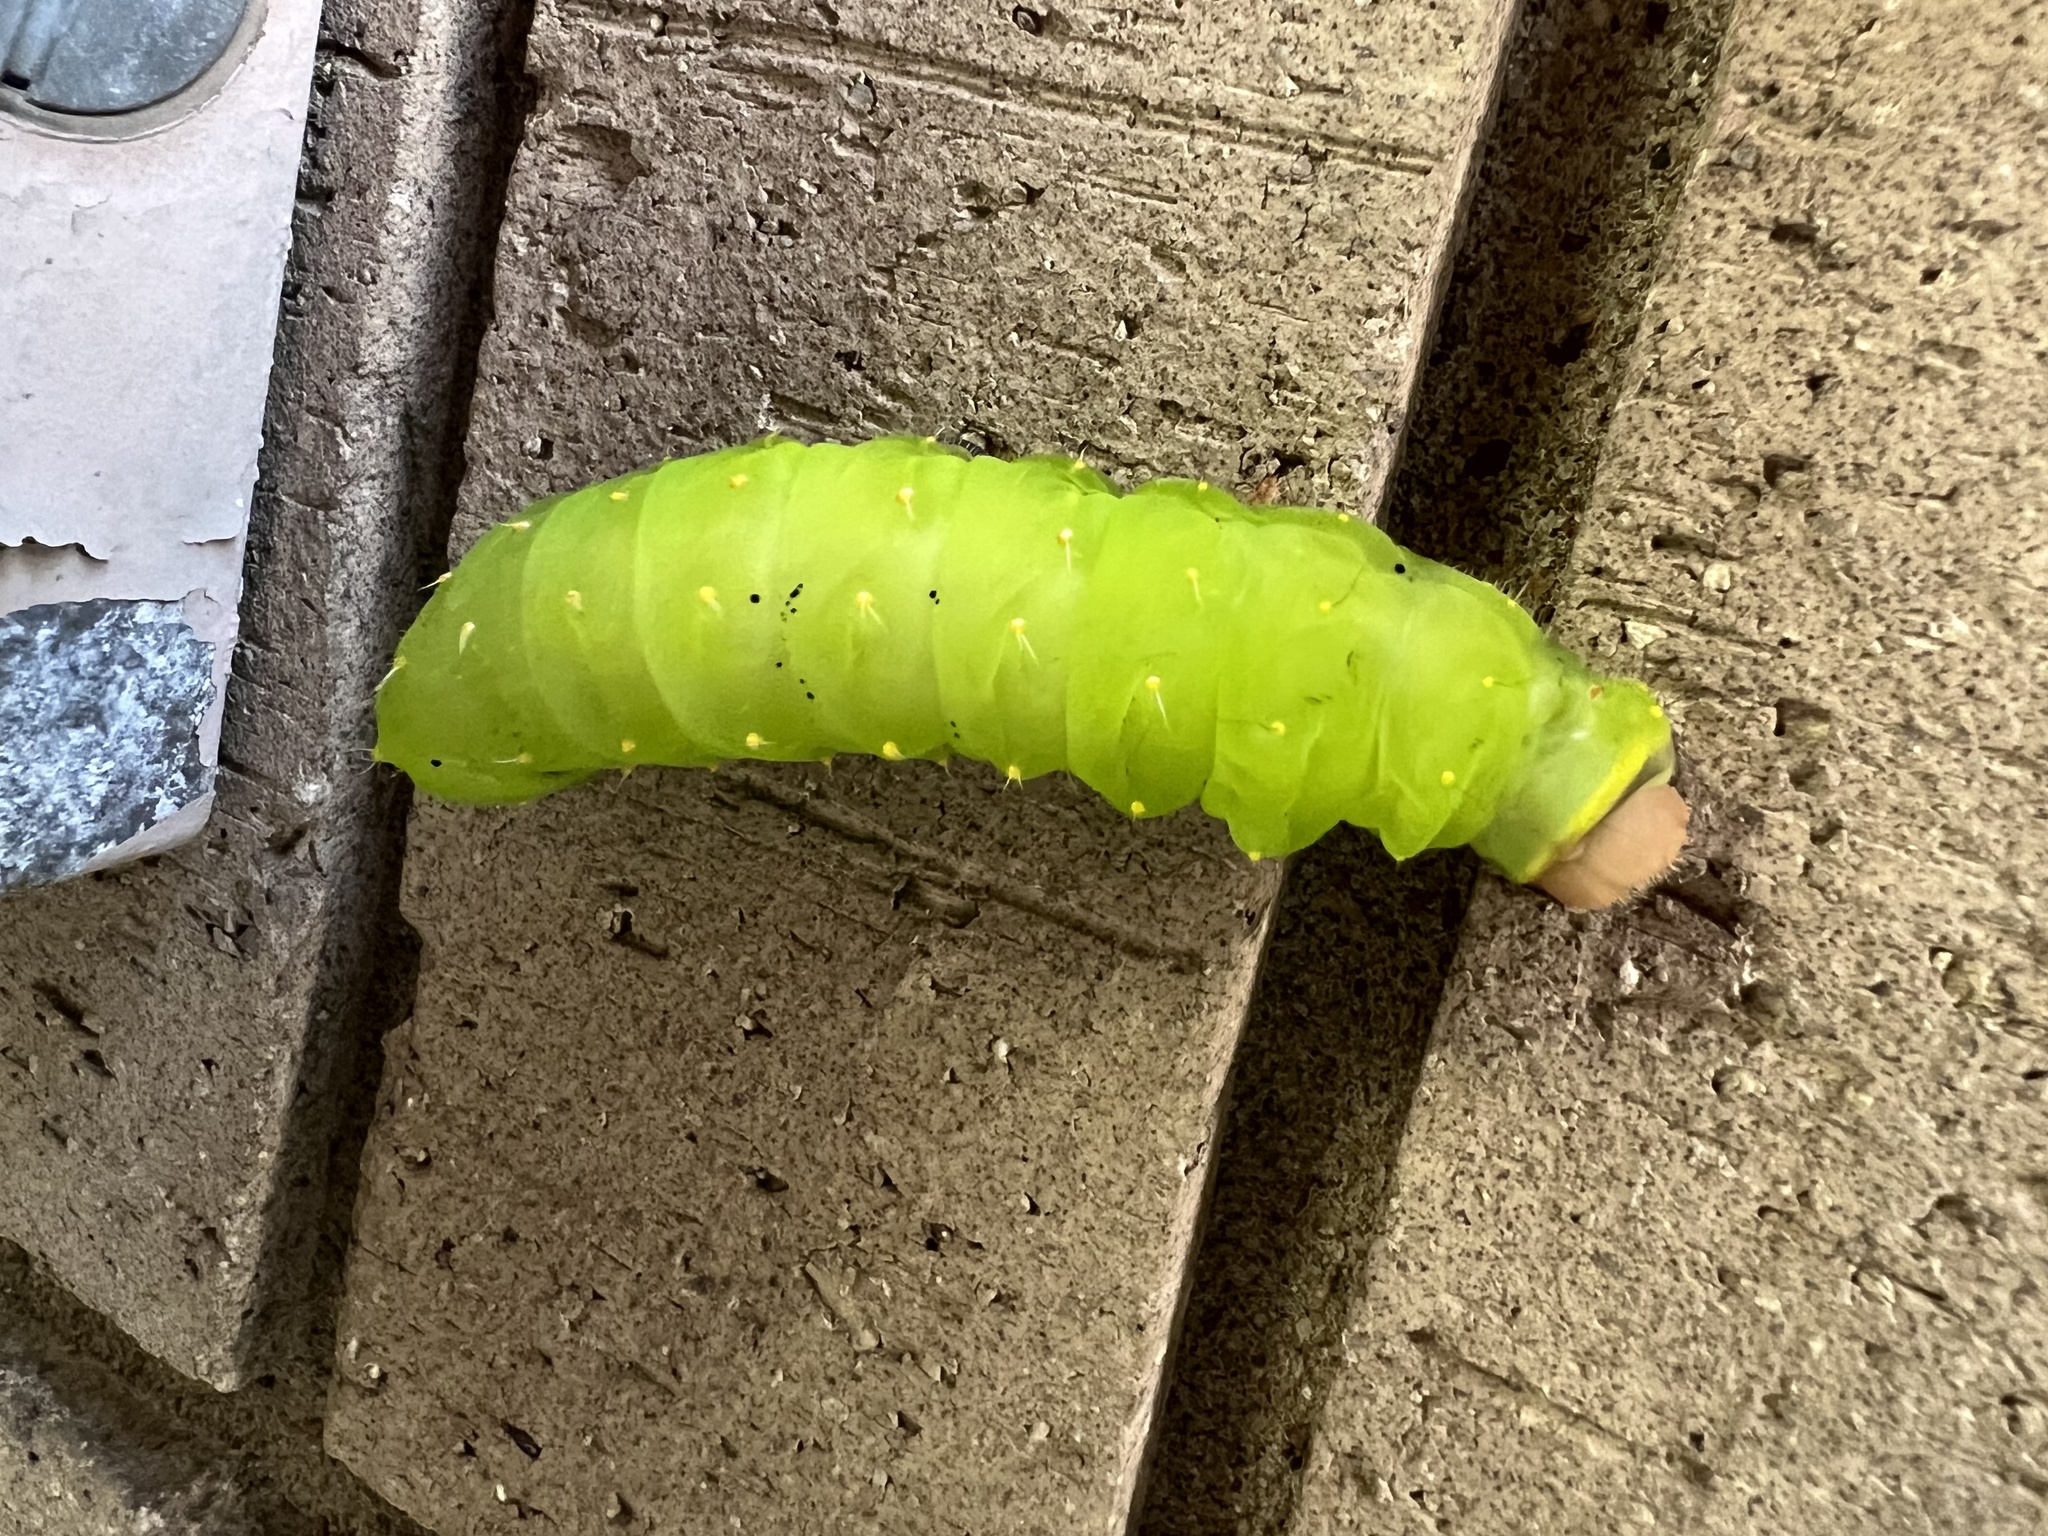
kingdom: Animalia
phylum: Arthropoda
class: Insecta
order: Lepidoptera
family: Saturniidae
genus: Antheraea
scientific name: Antheraea polyphemus
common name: Polyphemus moth
